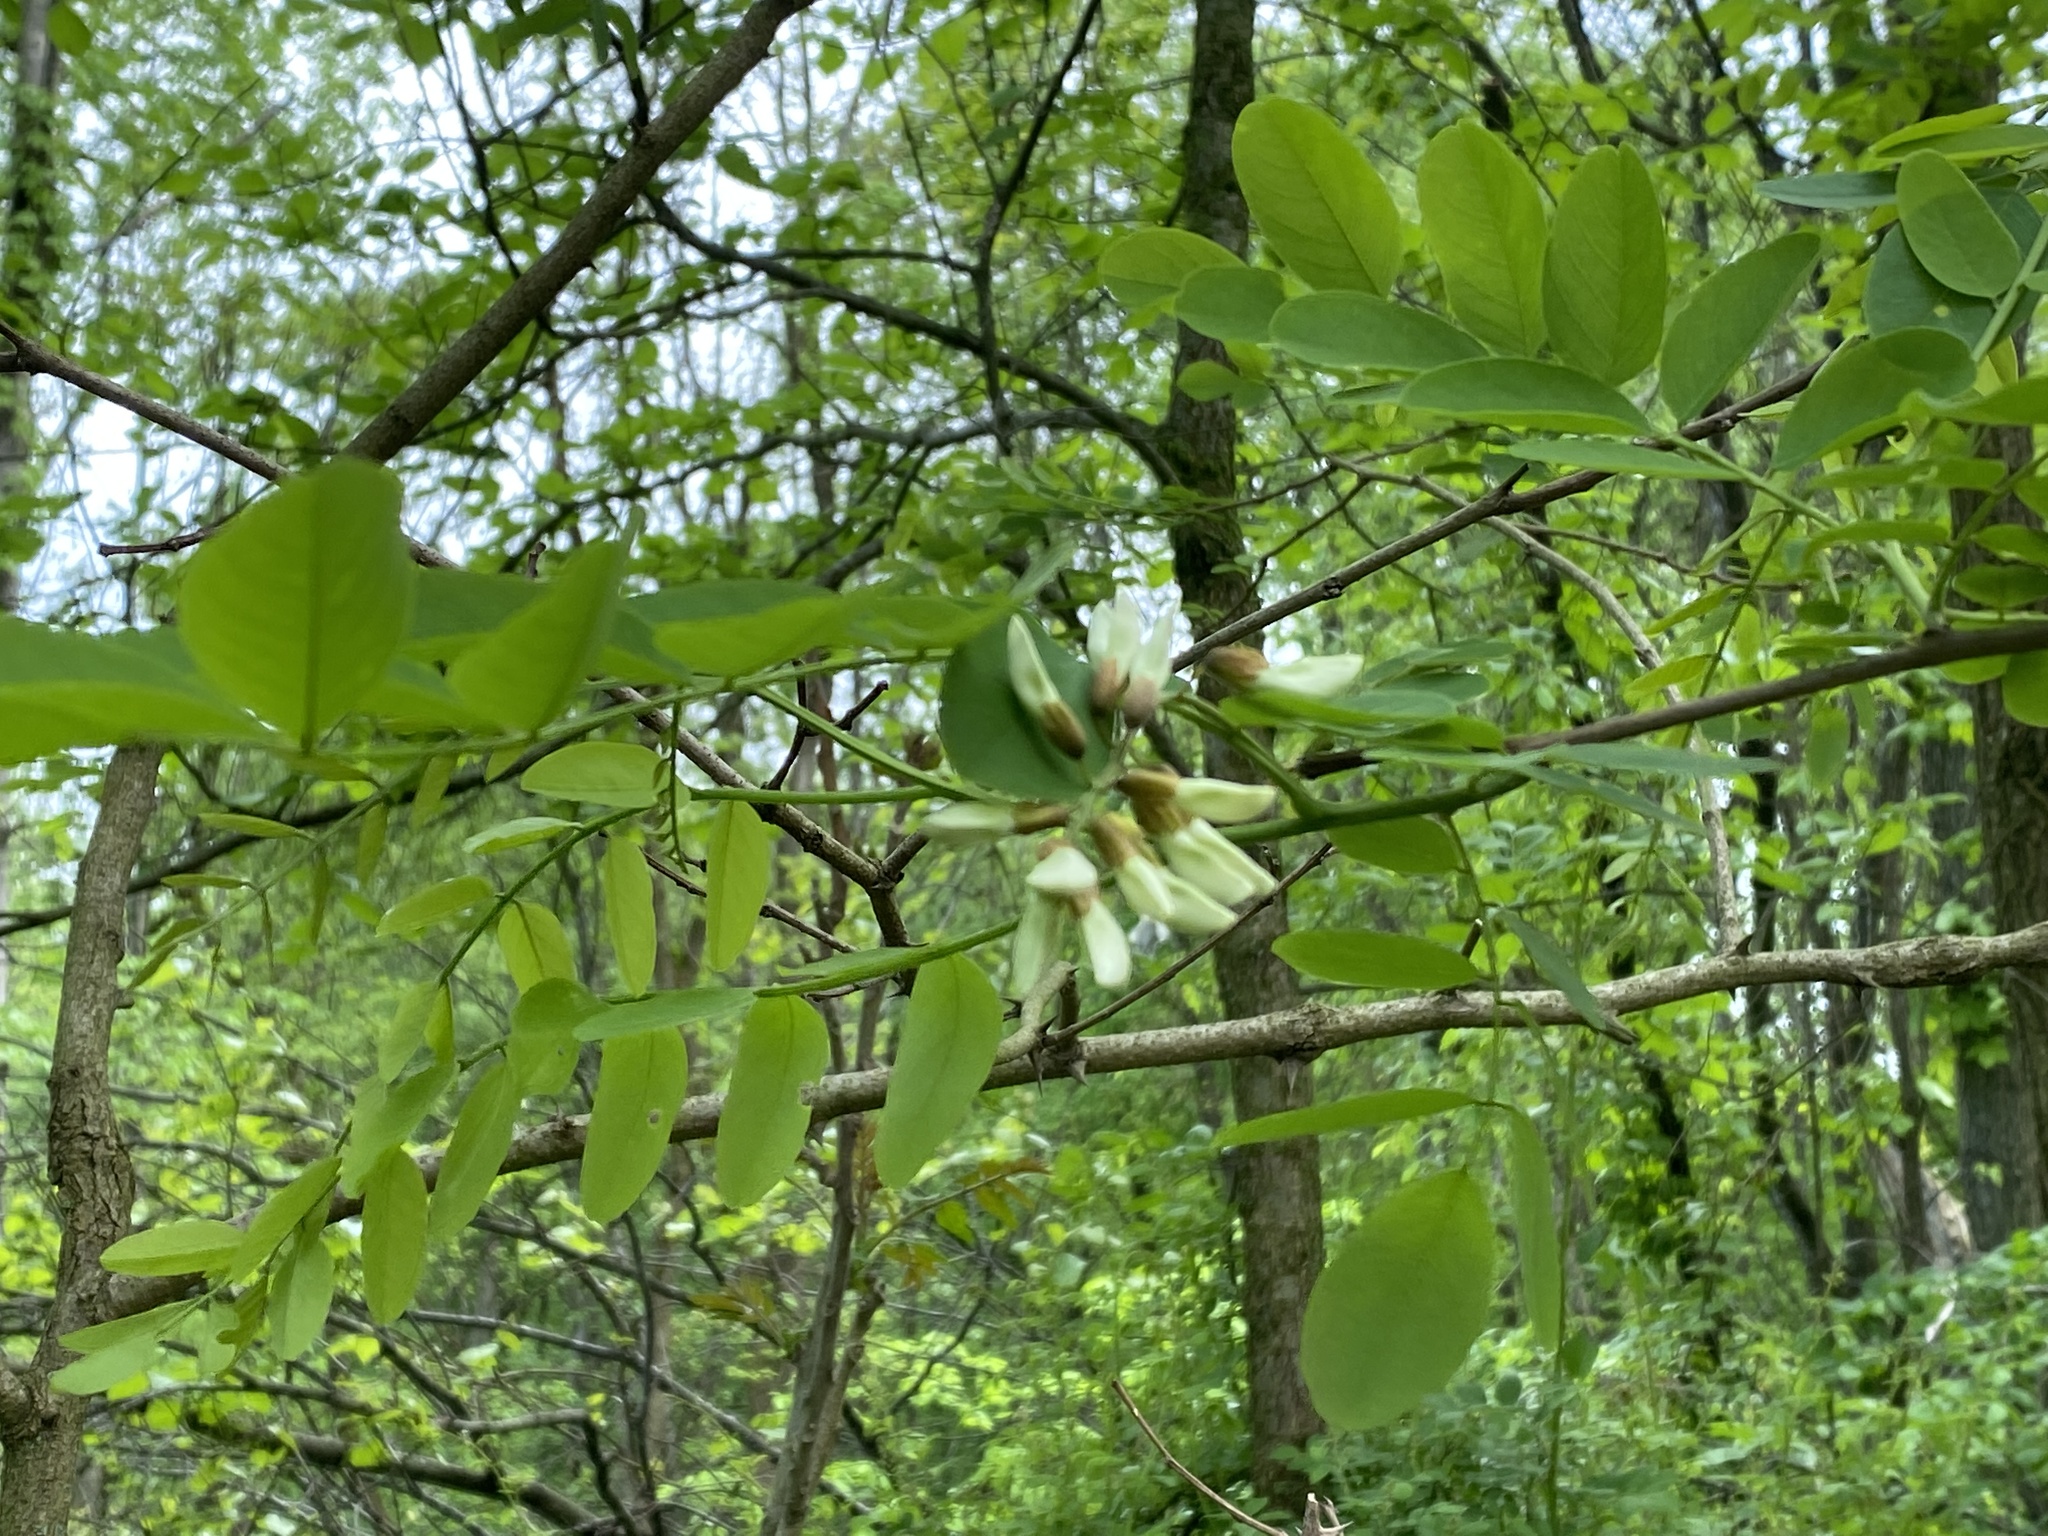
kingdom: Plantae
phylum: Tracheophyta
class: Magnoliopsida
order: Fabales
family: Fabaceae
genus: Robinia
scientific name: Robinia pseudoacacia
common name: Black locust
